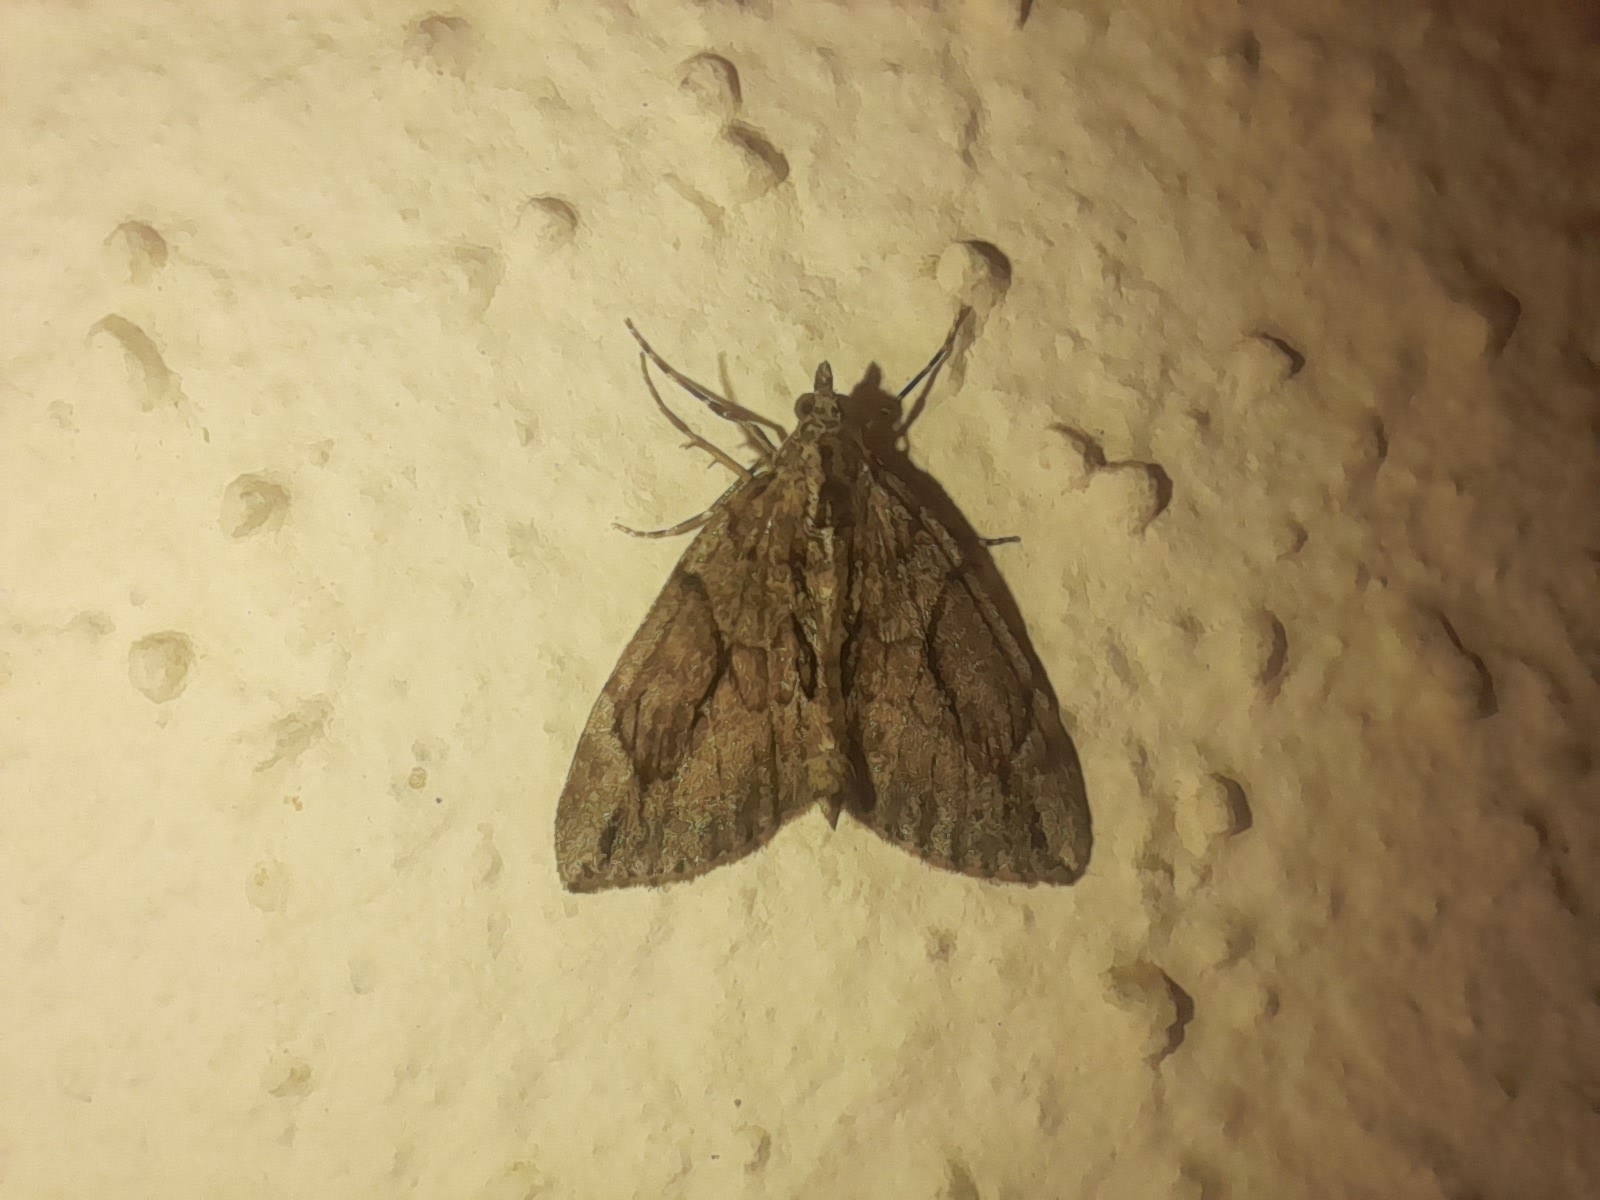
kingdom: Animalia
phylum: Arthropoda
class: Insecta
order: Lepidoptera
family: Geometridae
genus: Thera
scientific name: Thera cupressata
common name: Cypress carpet
